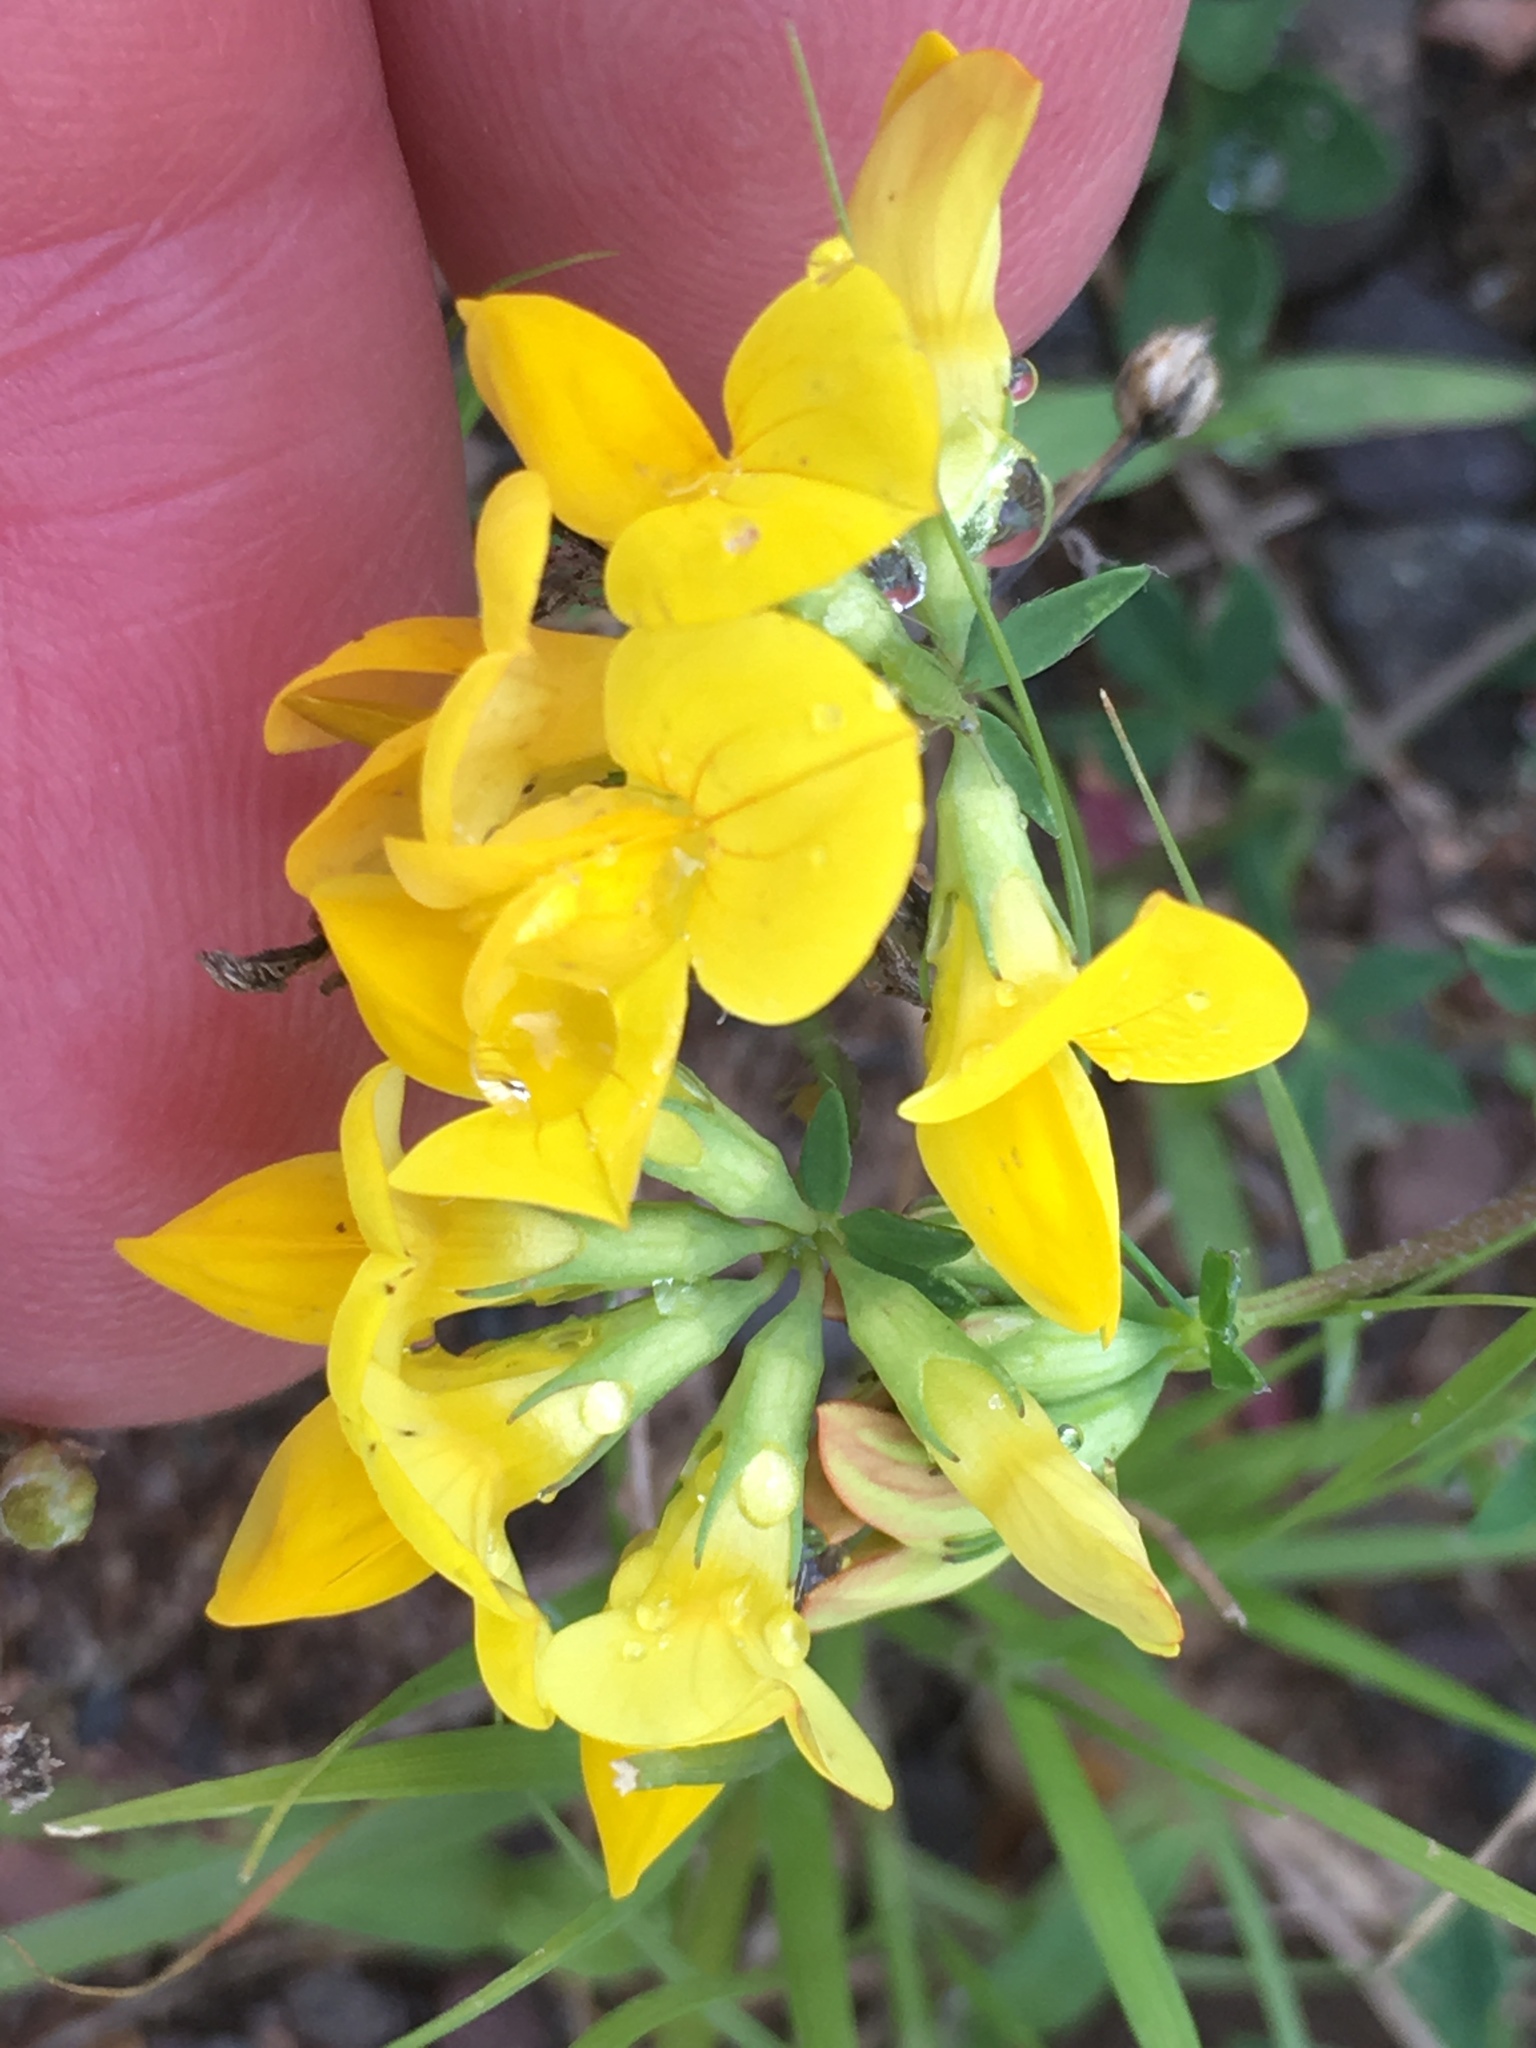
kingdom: Plantae
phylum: Tracheophyta
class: Magnoliopsida
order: Fabales
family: Fabaceae
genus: Lotus
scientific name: Lotus corniculatus
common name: Common bird's-foot-trefoil
